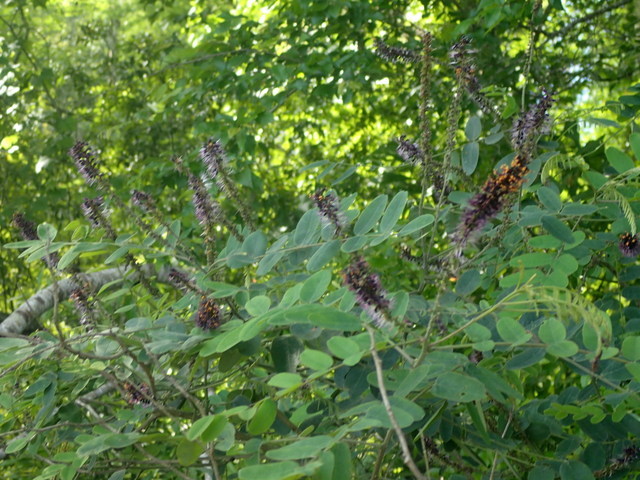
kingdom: Plantae
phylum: Tracheophyta
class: Magnoliopsida
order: Fabales
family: Fabaceae
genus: Amorpha
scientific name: Amorpha fruticosa
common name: False indigo
